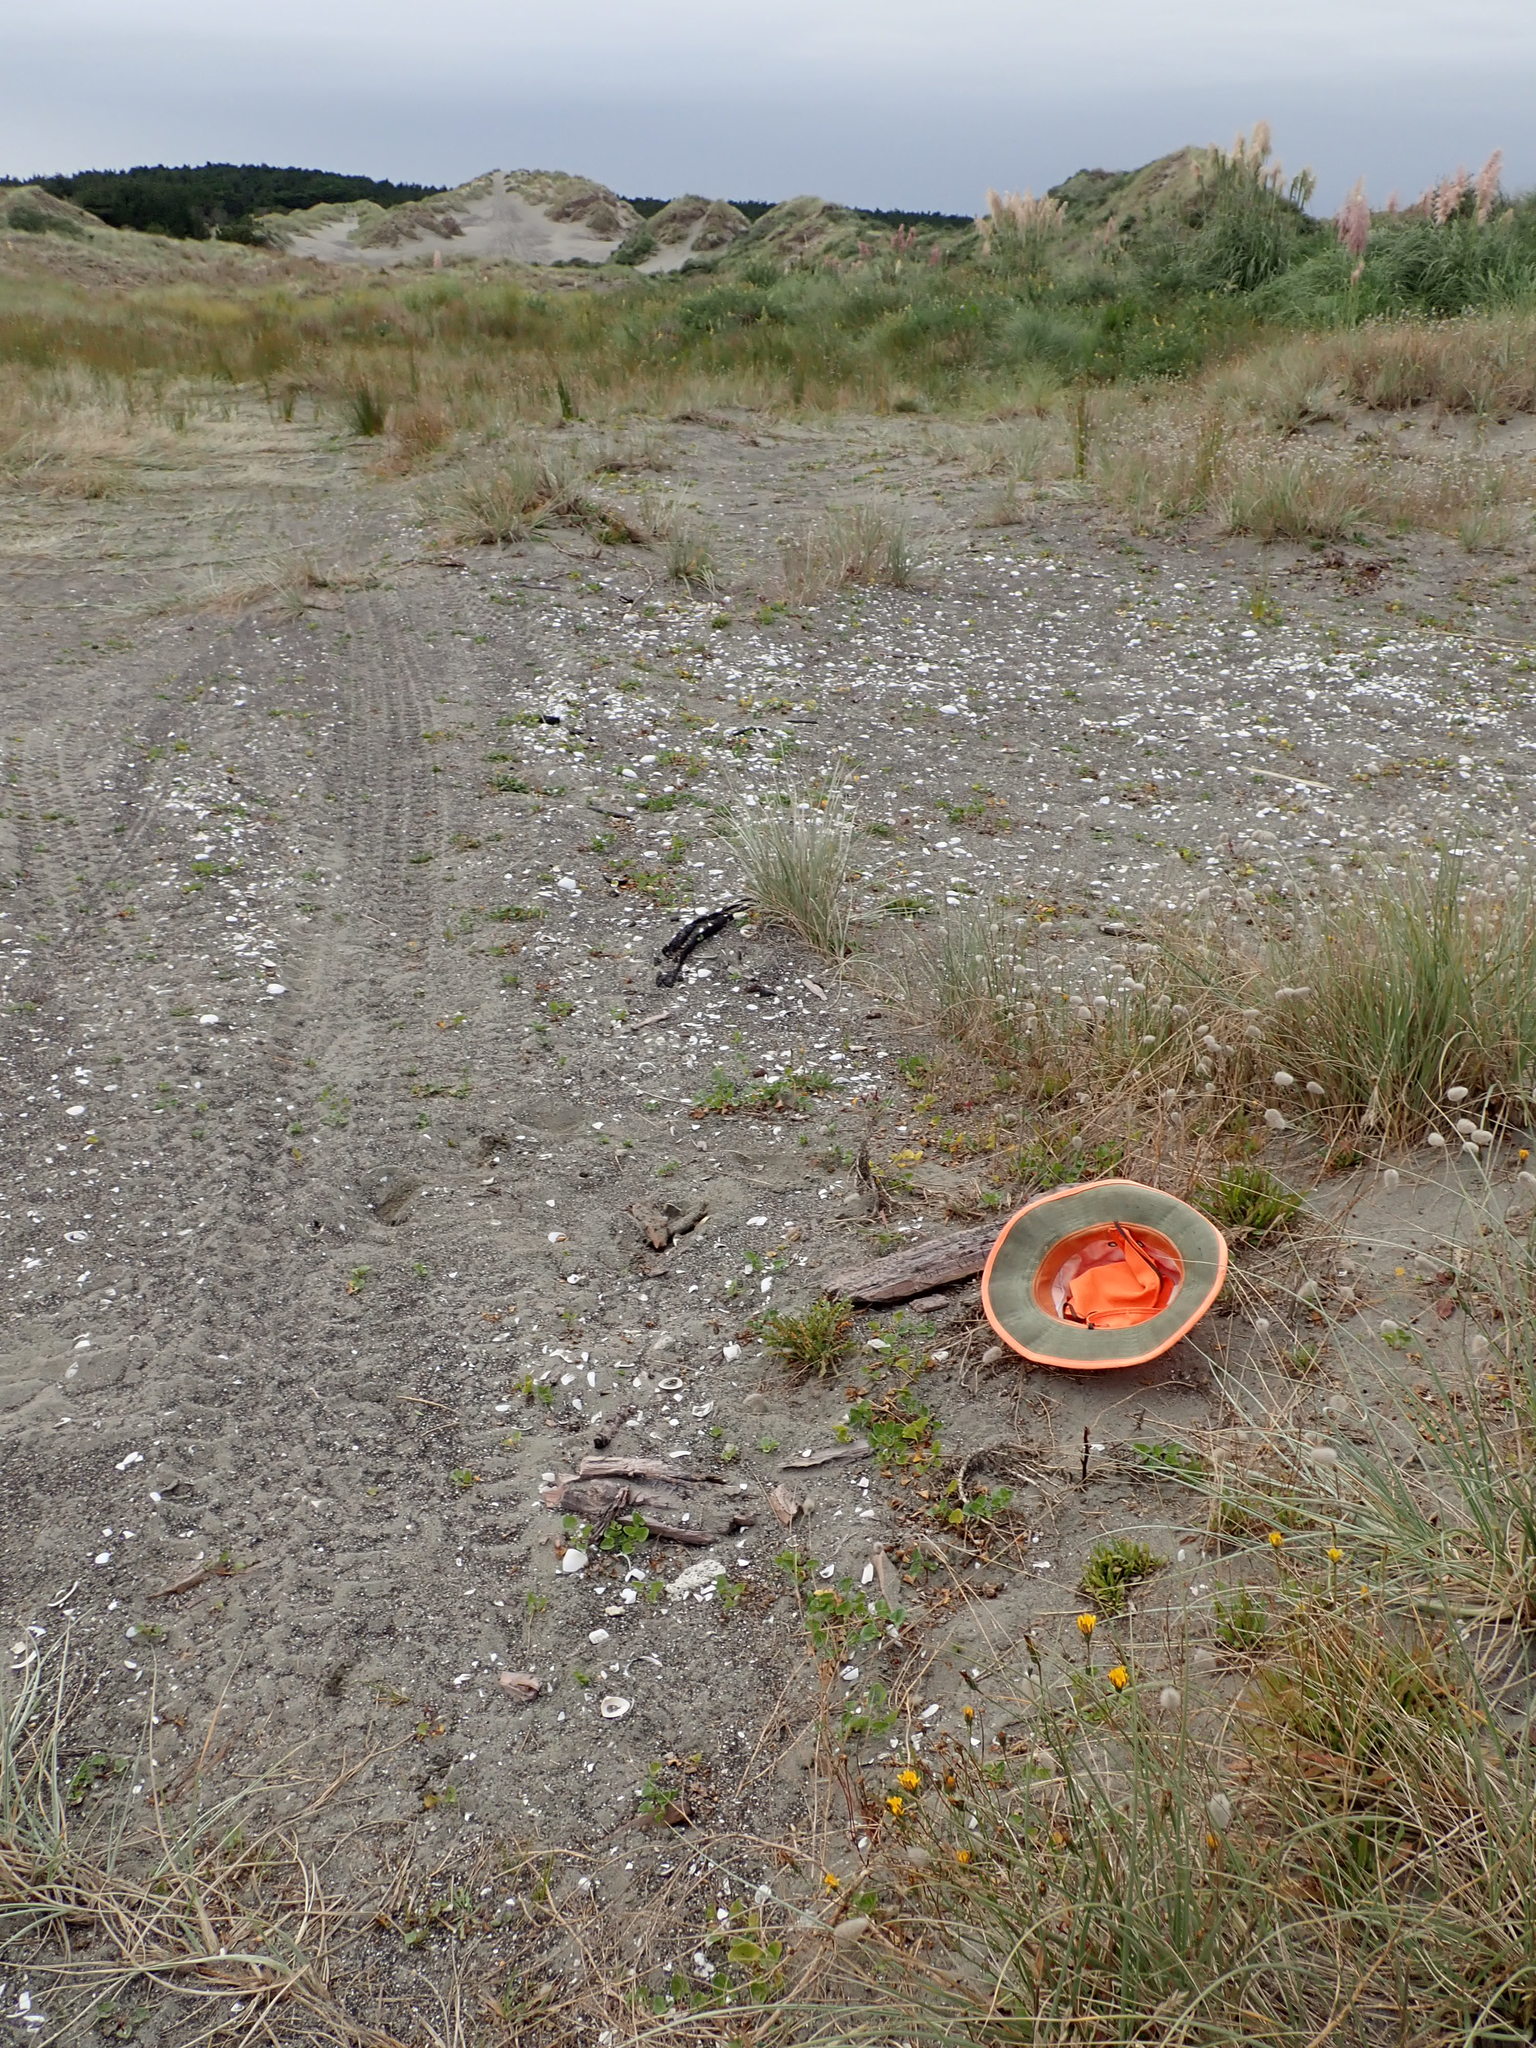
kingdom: Animalia
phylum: Arthropoda
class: Arachnida
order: Araneae
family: Lycosidae
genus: Hogna
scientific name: Hogna crispipes
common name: Wolf spider
